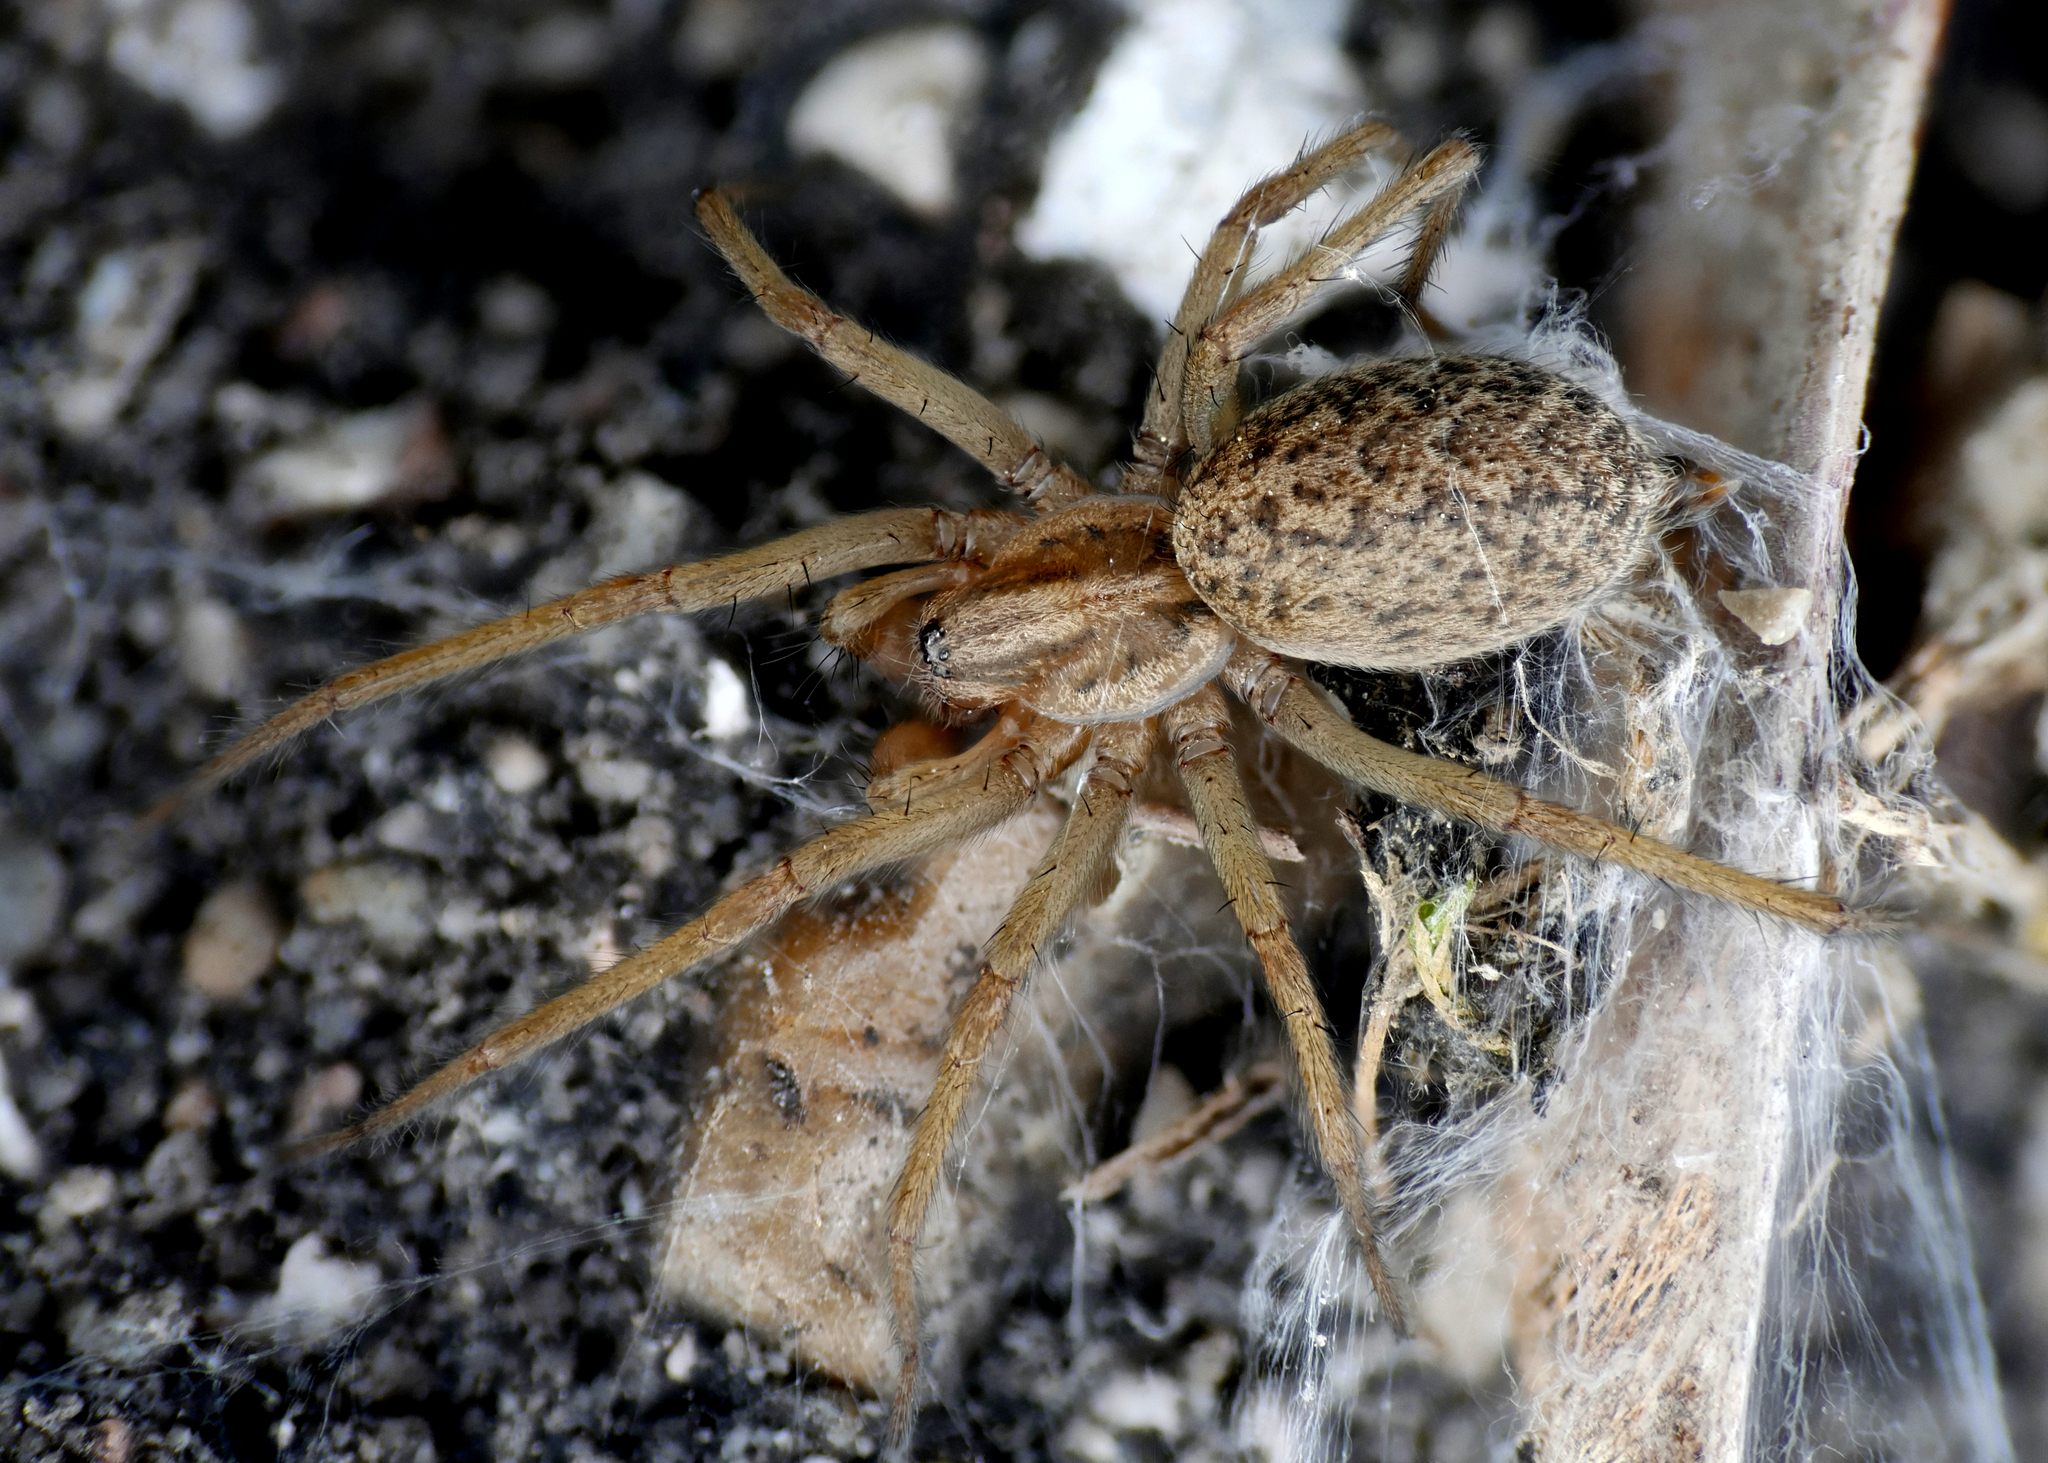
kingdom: Animalia
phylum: Arthropoda
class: Arachnida
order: Araneae
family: Agelenidae
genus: Eratigena
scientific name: Eratigena agrestis
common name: Hobo spider
